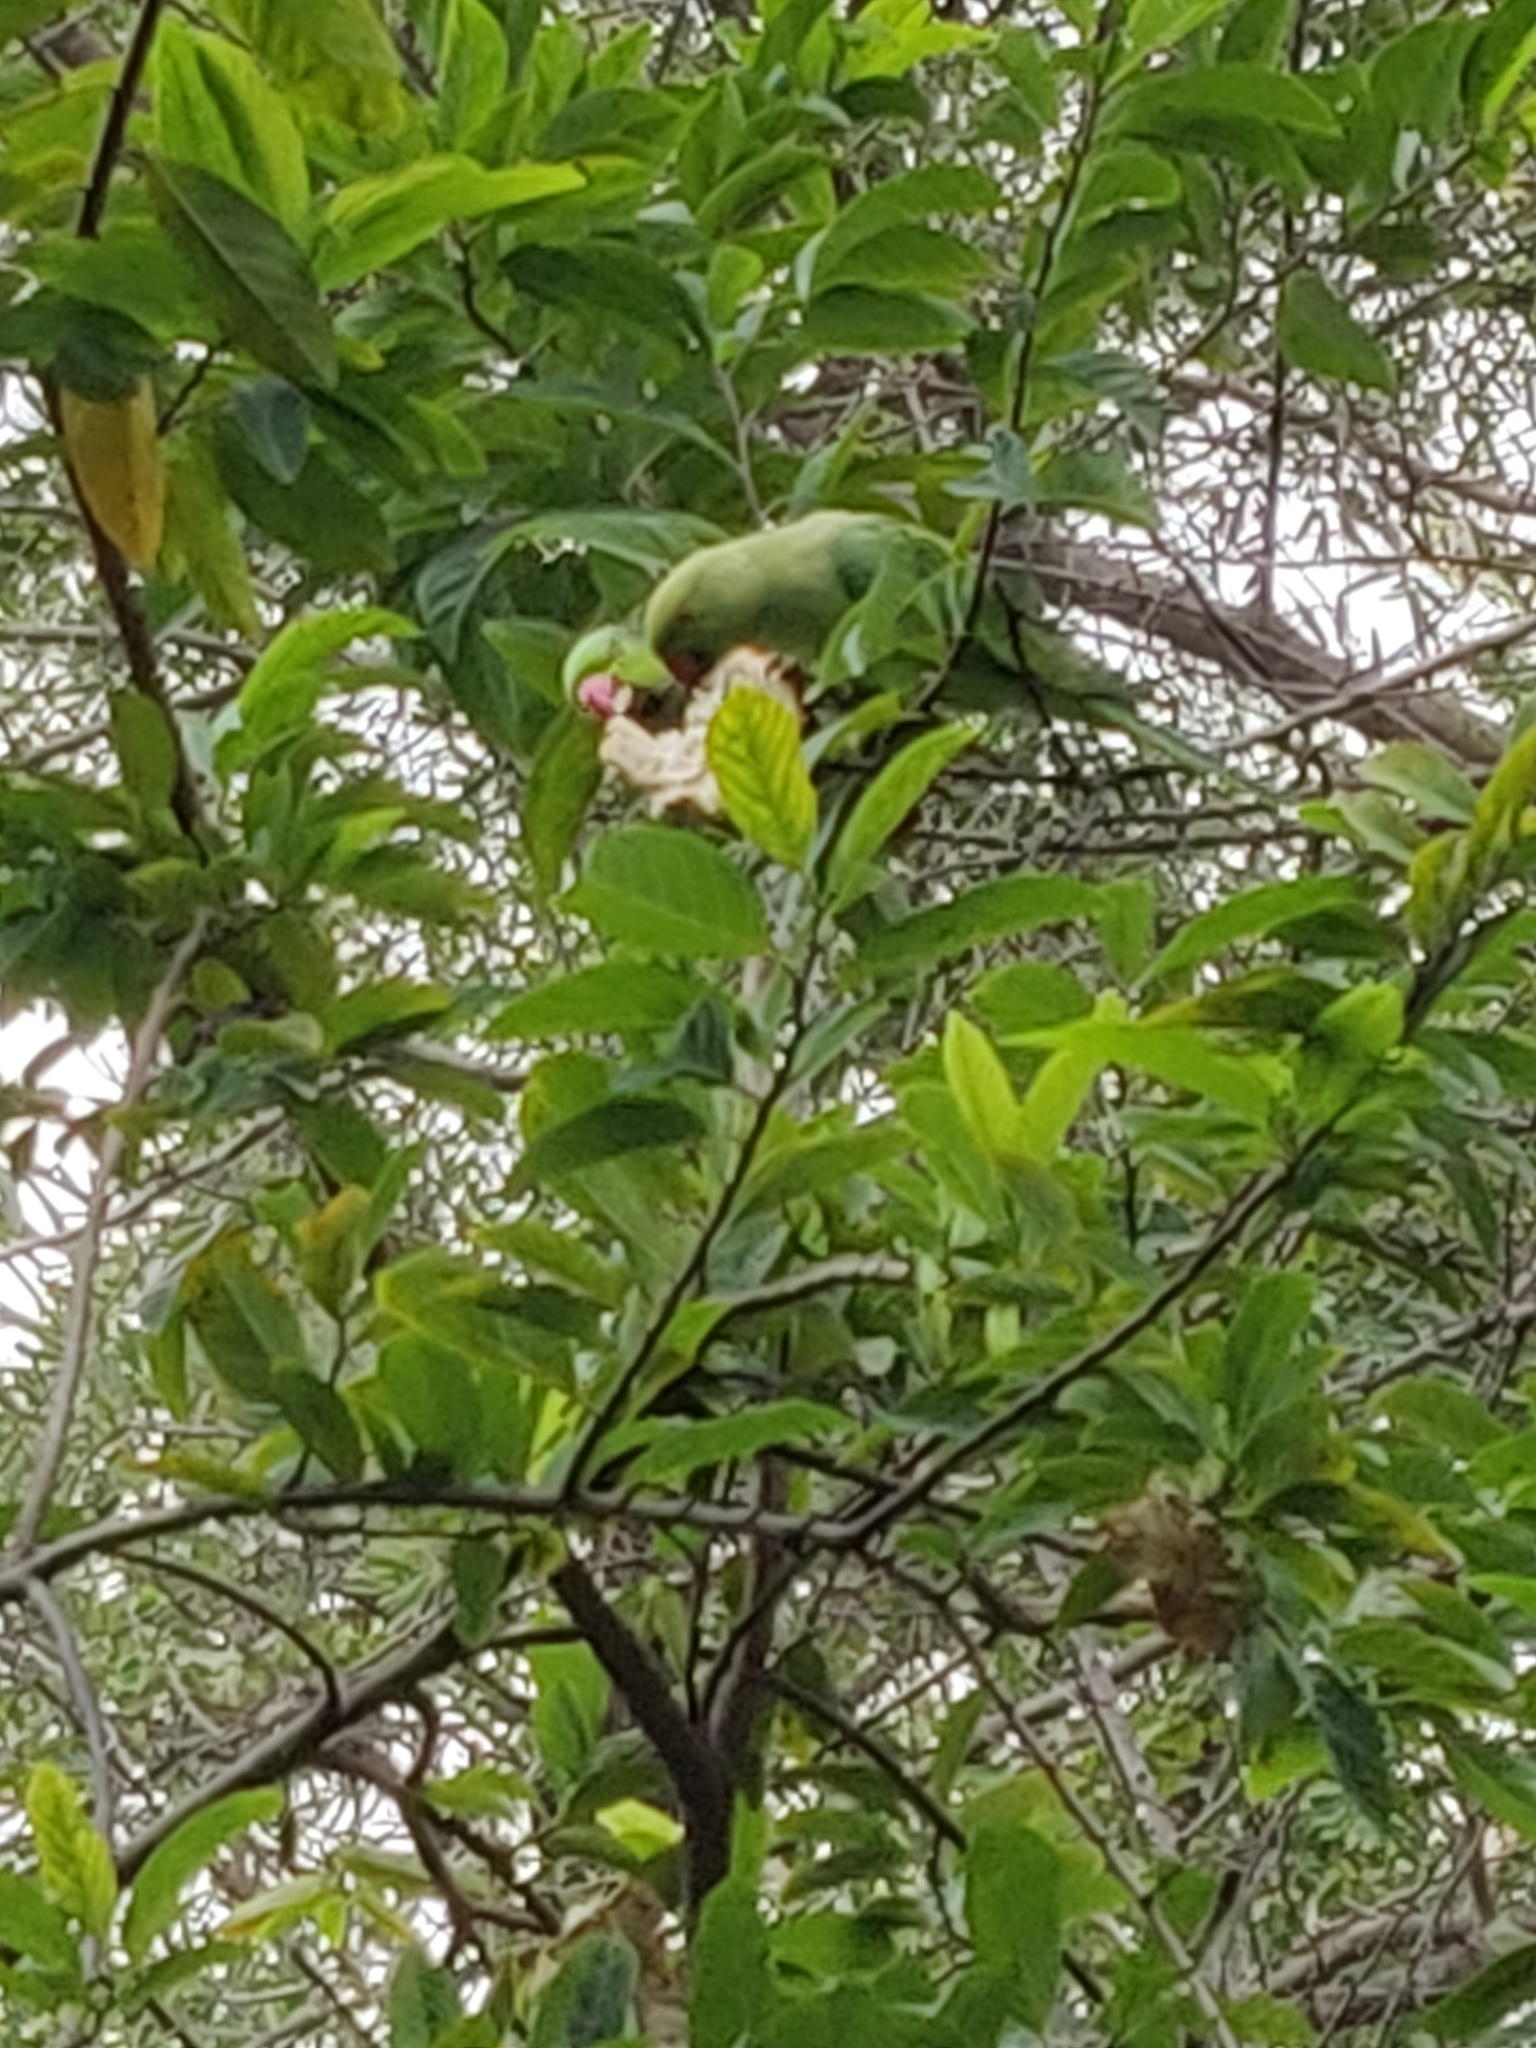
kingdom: Animalia
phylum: Chordata
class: Aves
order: Psittaciformes
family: Psittacidae
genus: Psittacula
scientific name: Psittacula krameri
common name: Rose-ringed parakeet
